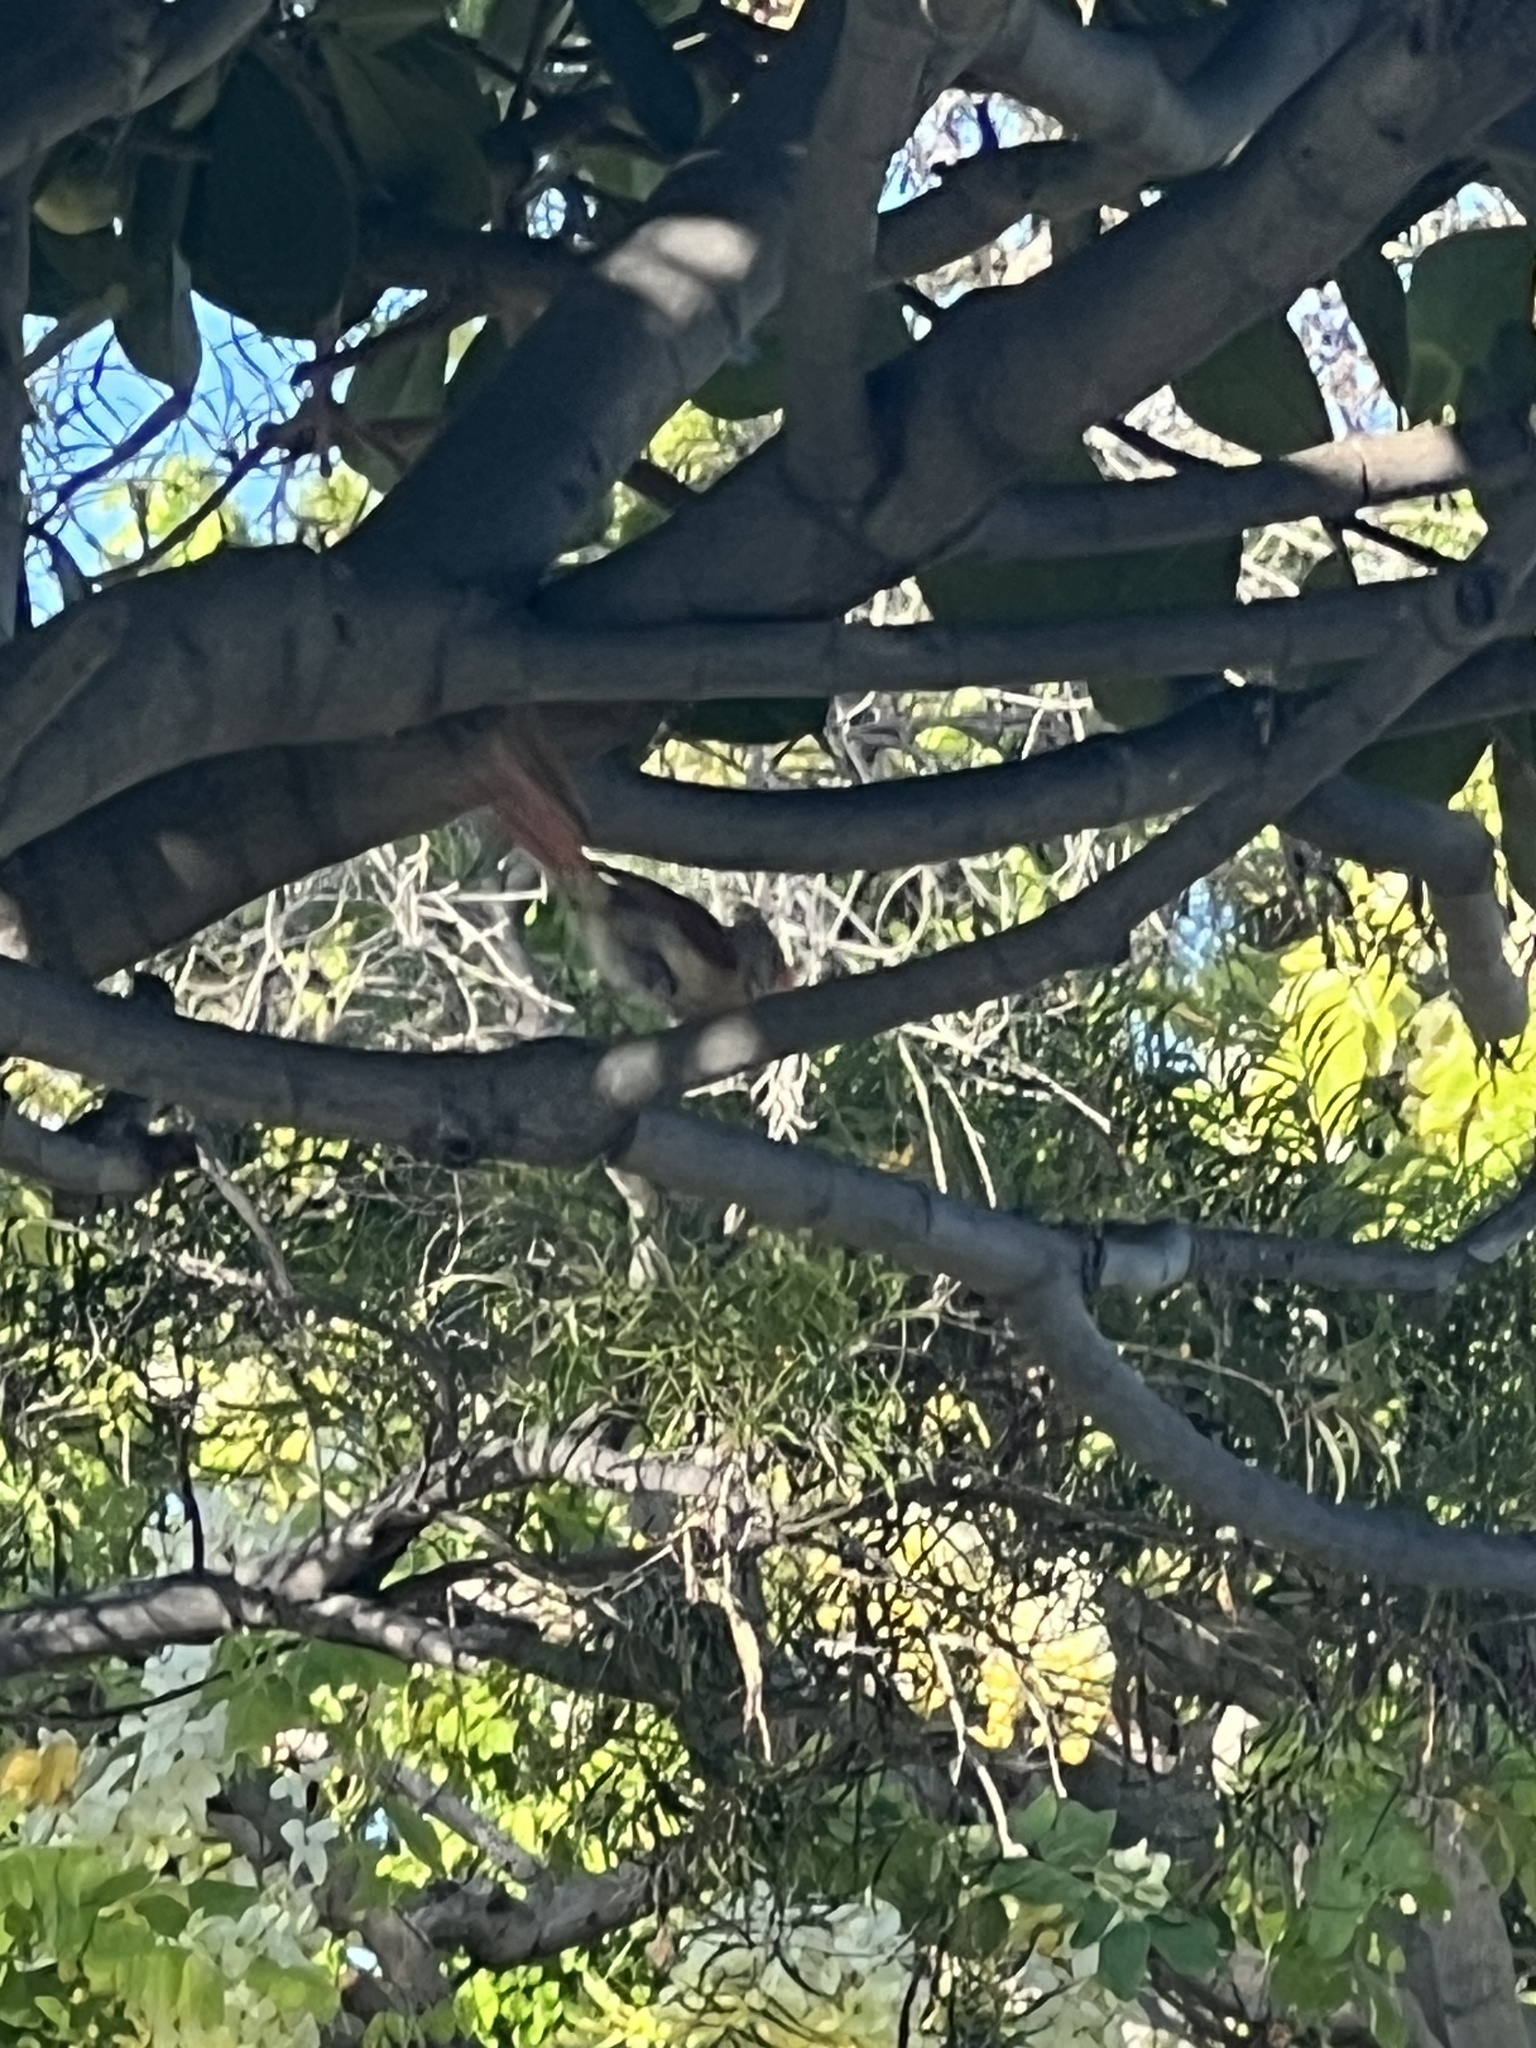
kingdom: Animalia
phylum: Chordata
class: Aves
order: Passeriformes
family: Cardinalidae
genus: Cardinalis
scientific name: Cardinalis cardinalis
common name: Northern cardinal
